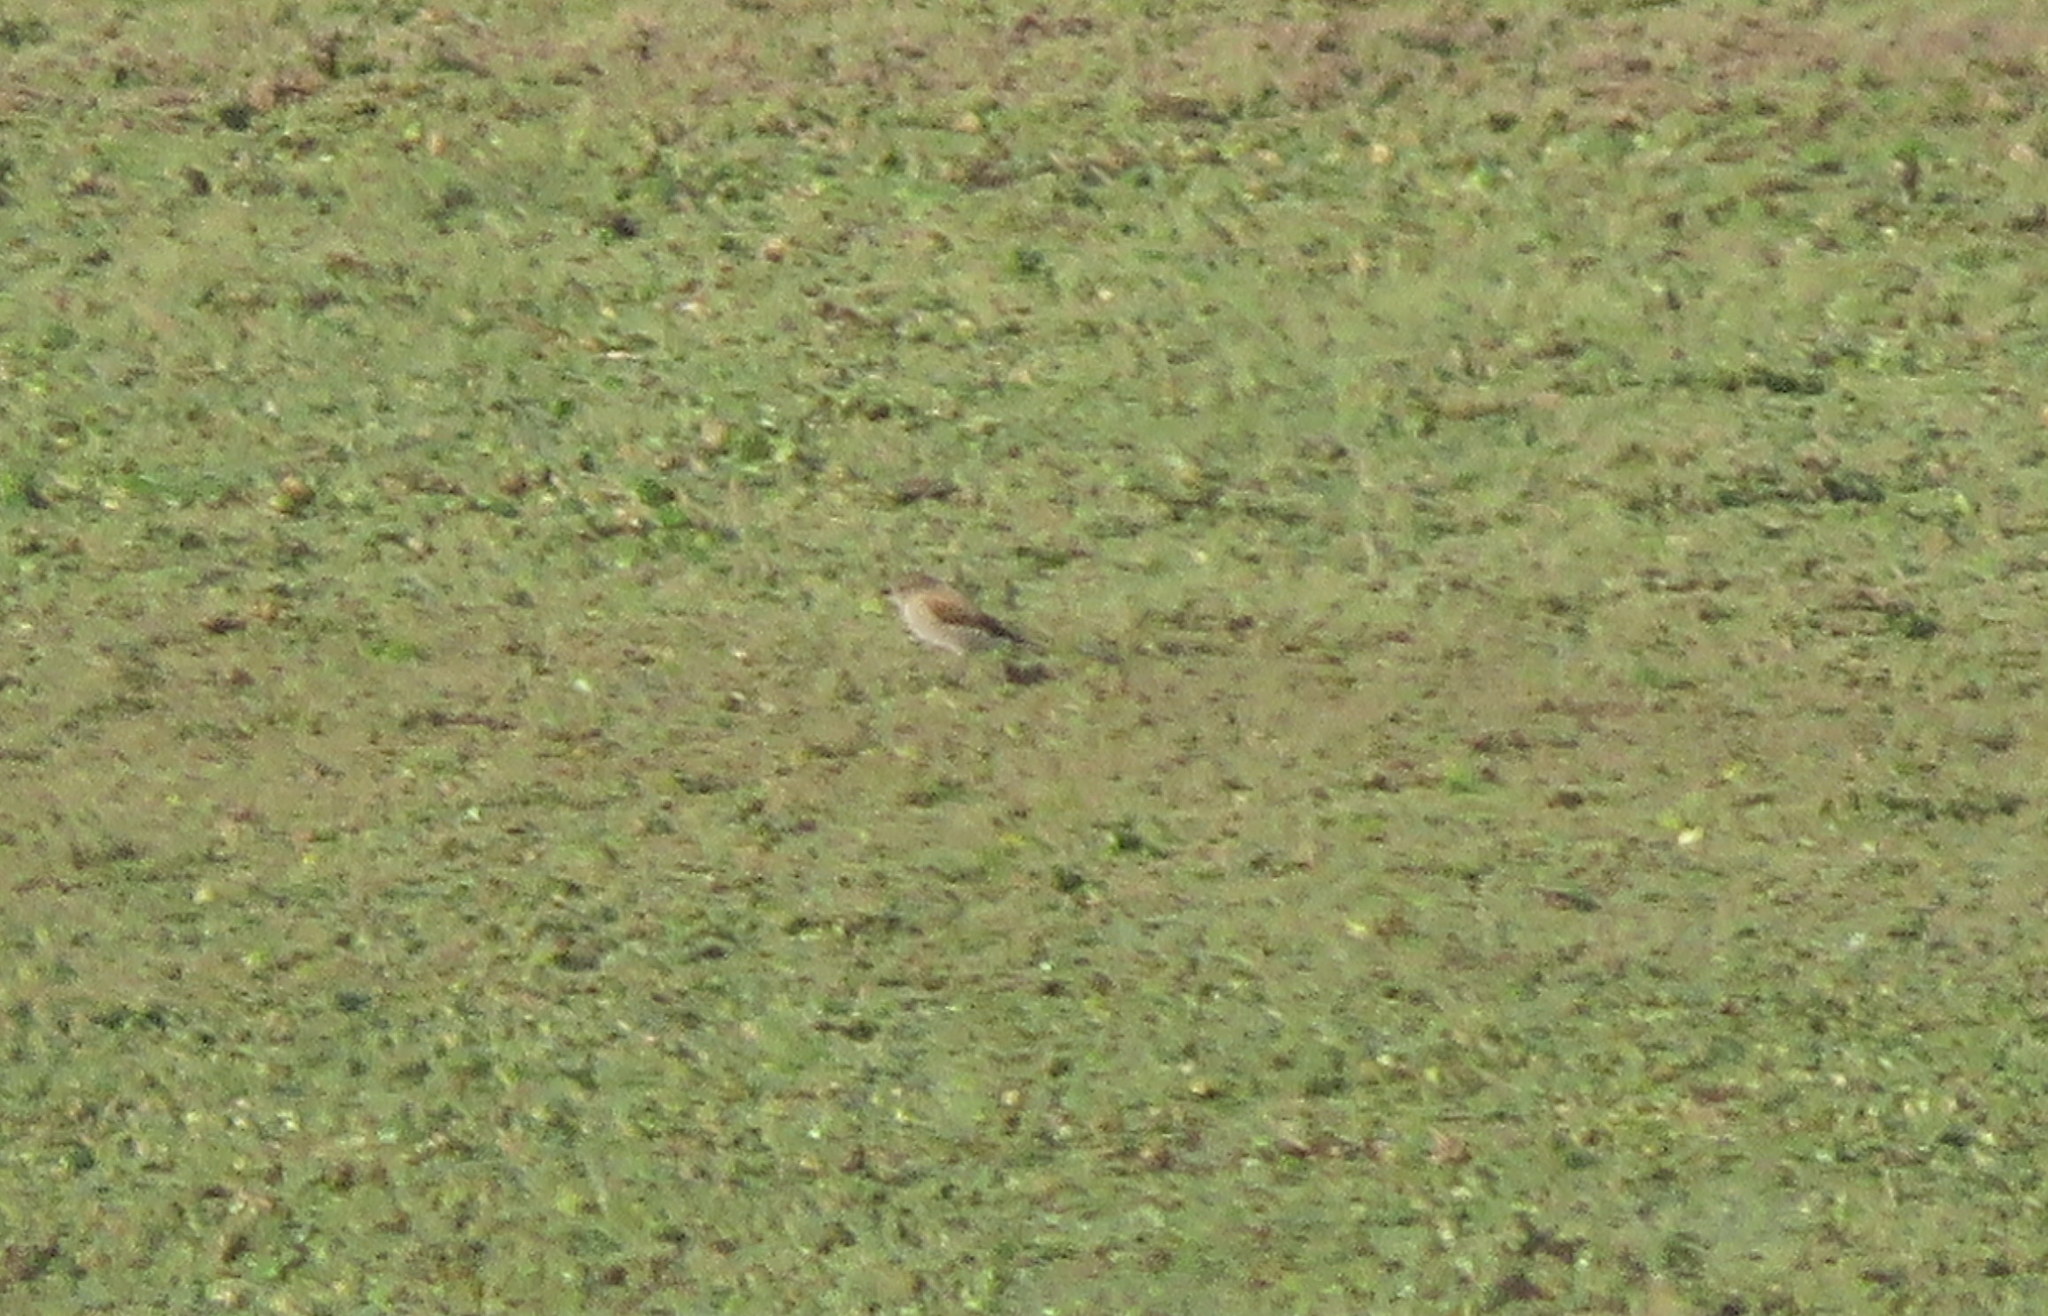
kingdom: Animalia
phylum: Chordata
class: Aves
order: Passeriformes
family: Tyrannidae
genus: Lessonia
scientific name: Lessonia rufa
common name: Austral negrito
